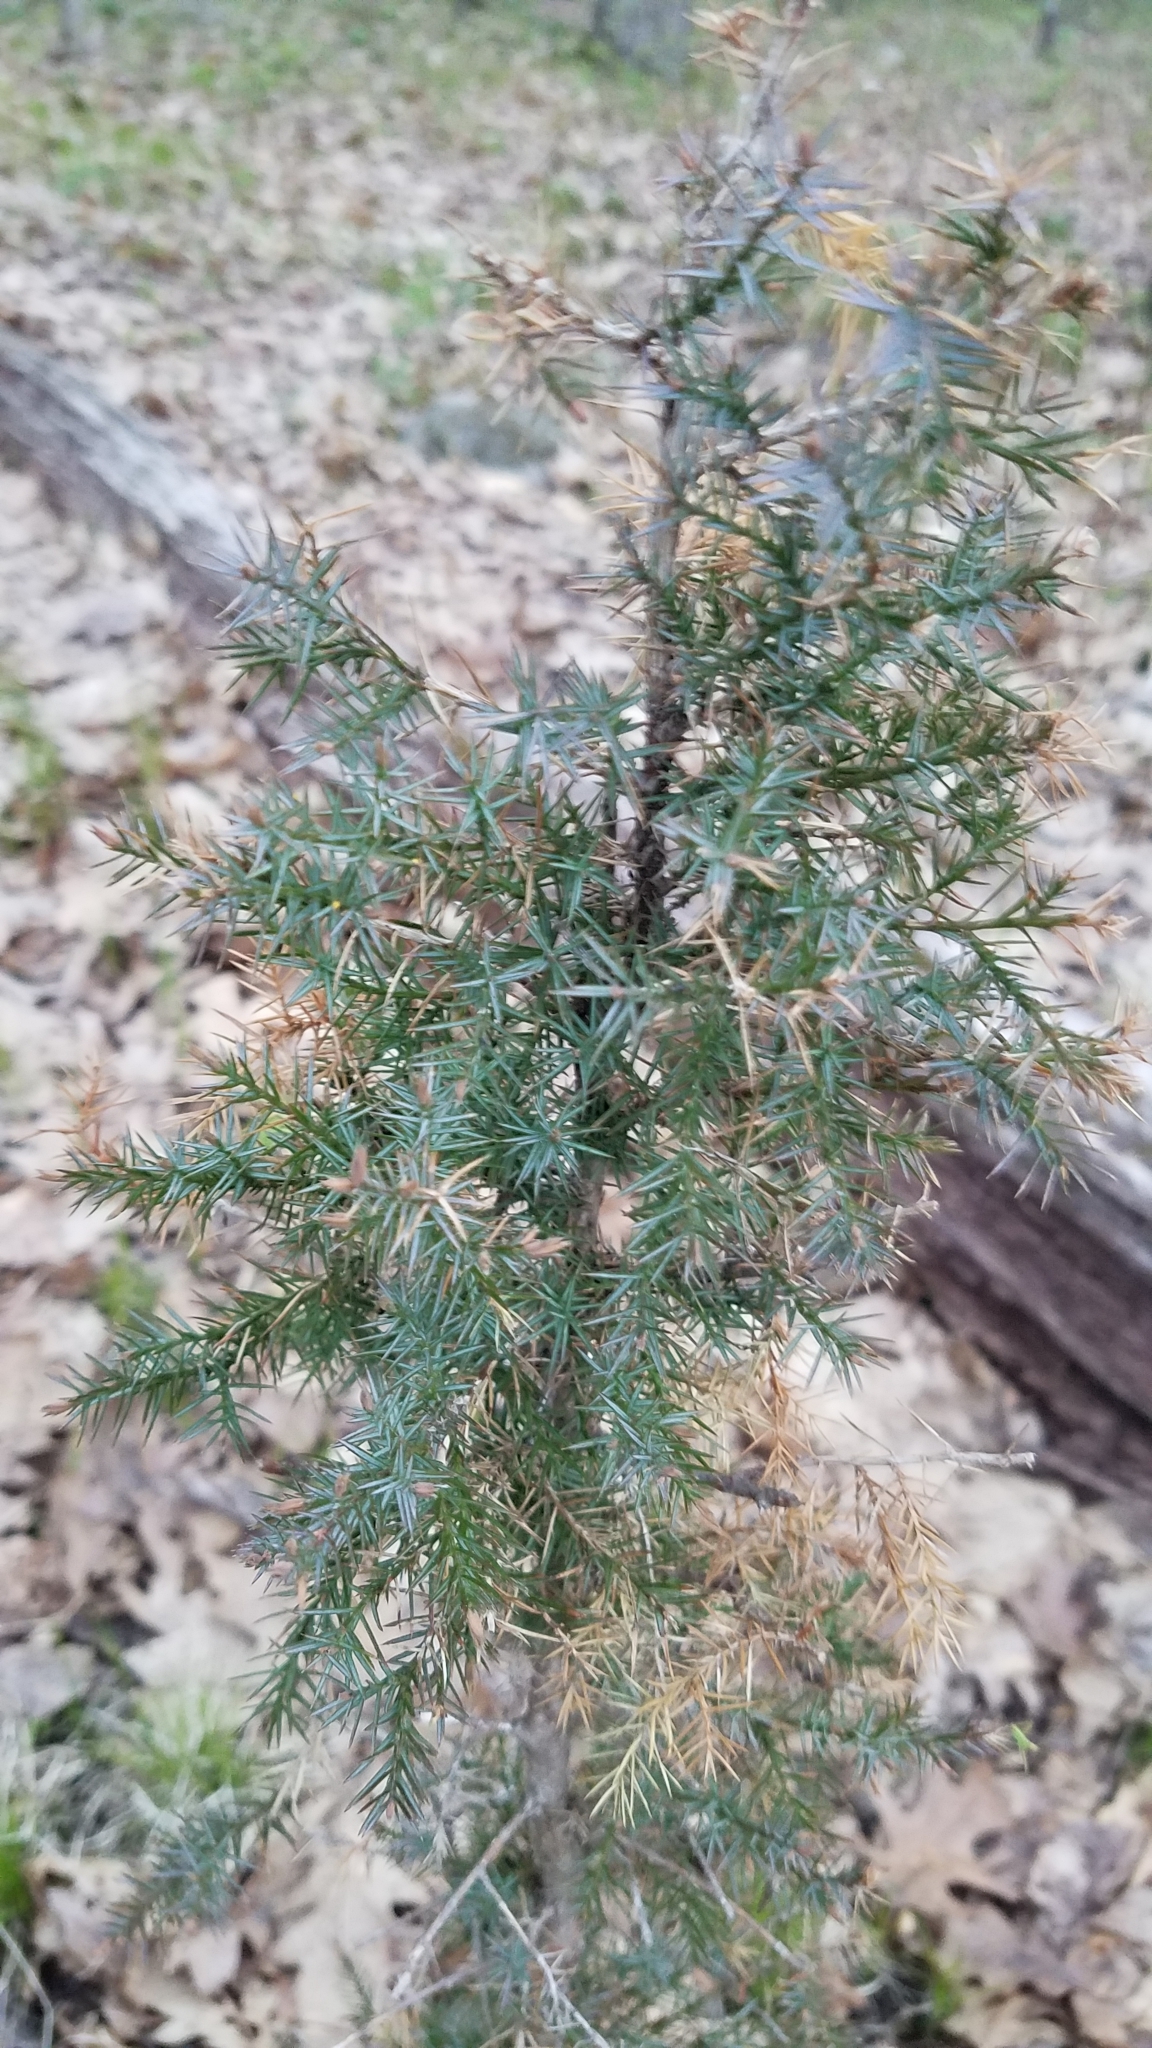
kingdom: Plantae
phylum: Tracheophyta
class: Pinopsida
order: Pinales
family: Cupressaceae
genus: Juniperus
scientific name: Juniperus virginiana
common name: Red juniper
